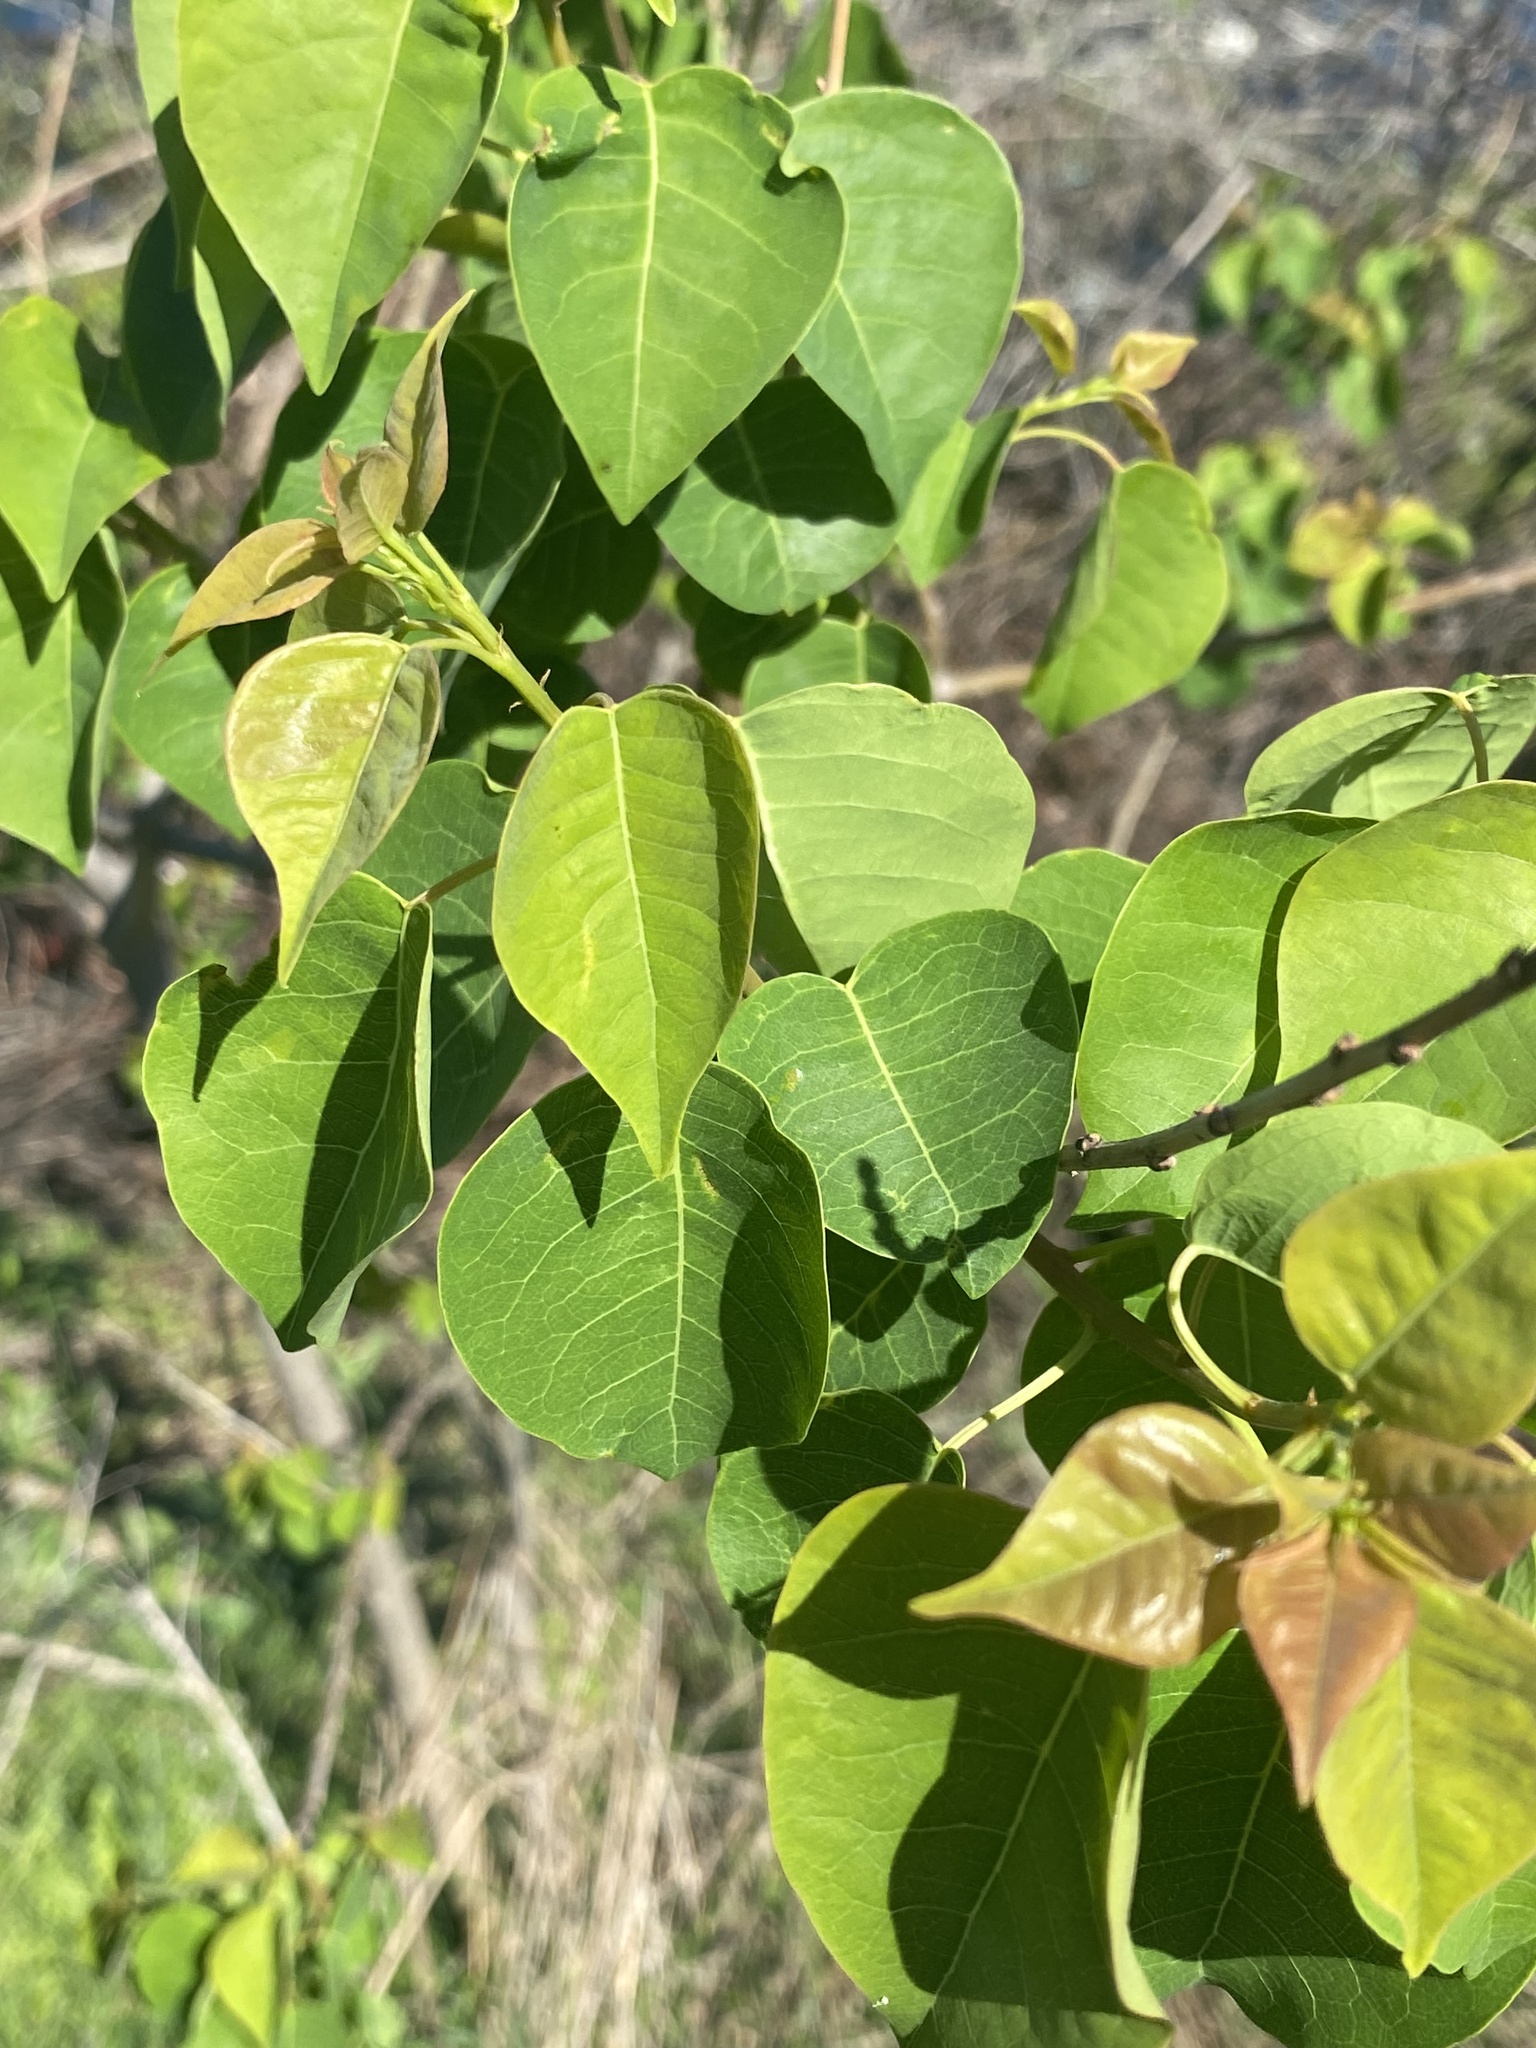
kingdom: Plantae
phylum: Tracheophyta
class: Magnoliopsida
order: Malpighiales
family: Euphorbiaceae
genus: Triadica
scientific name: Triadica sebifera
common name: Chinese tallow
